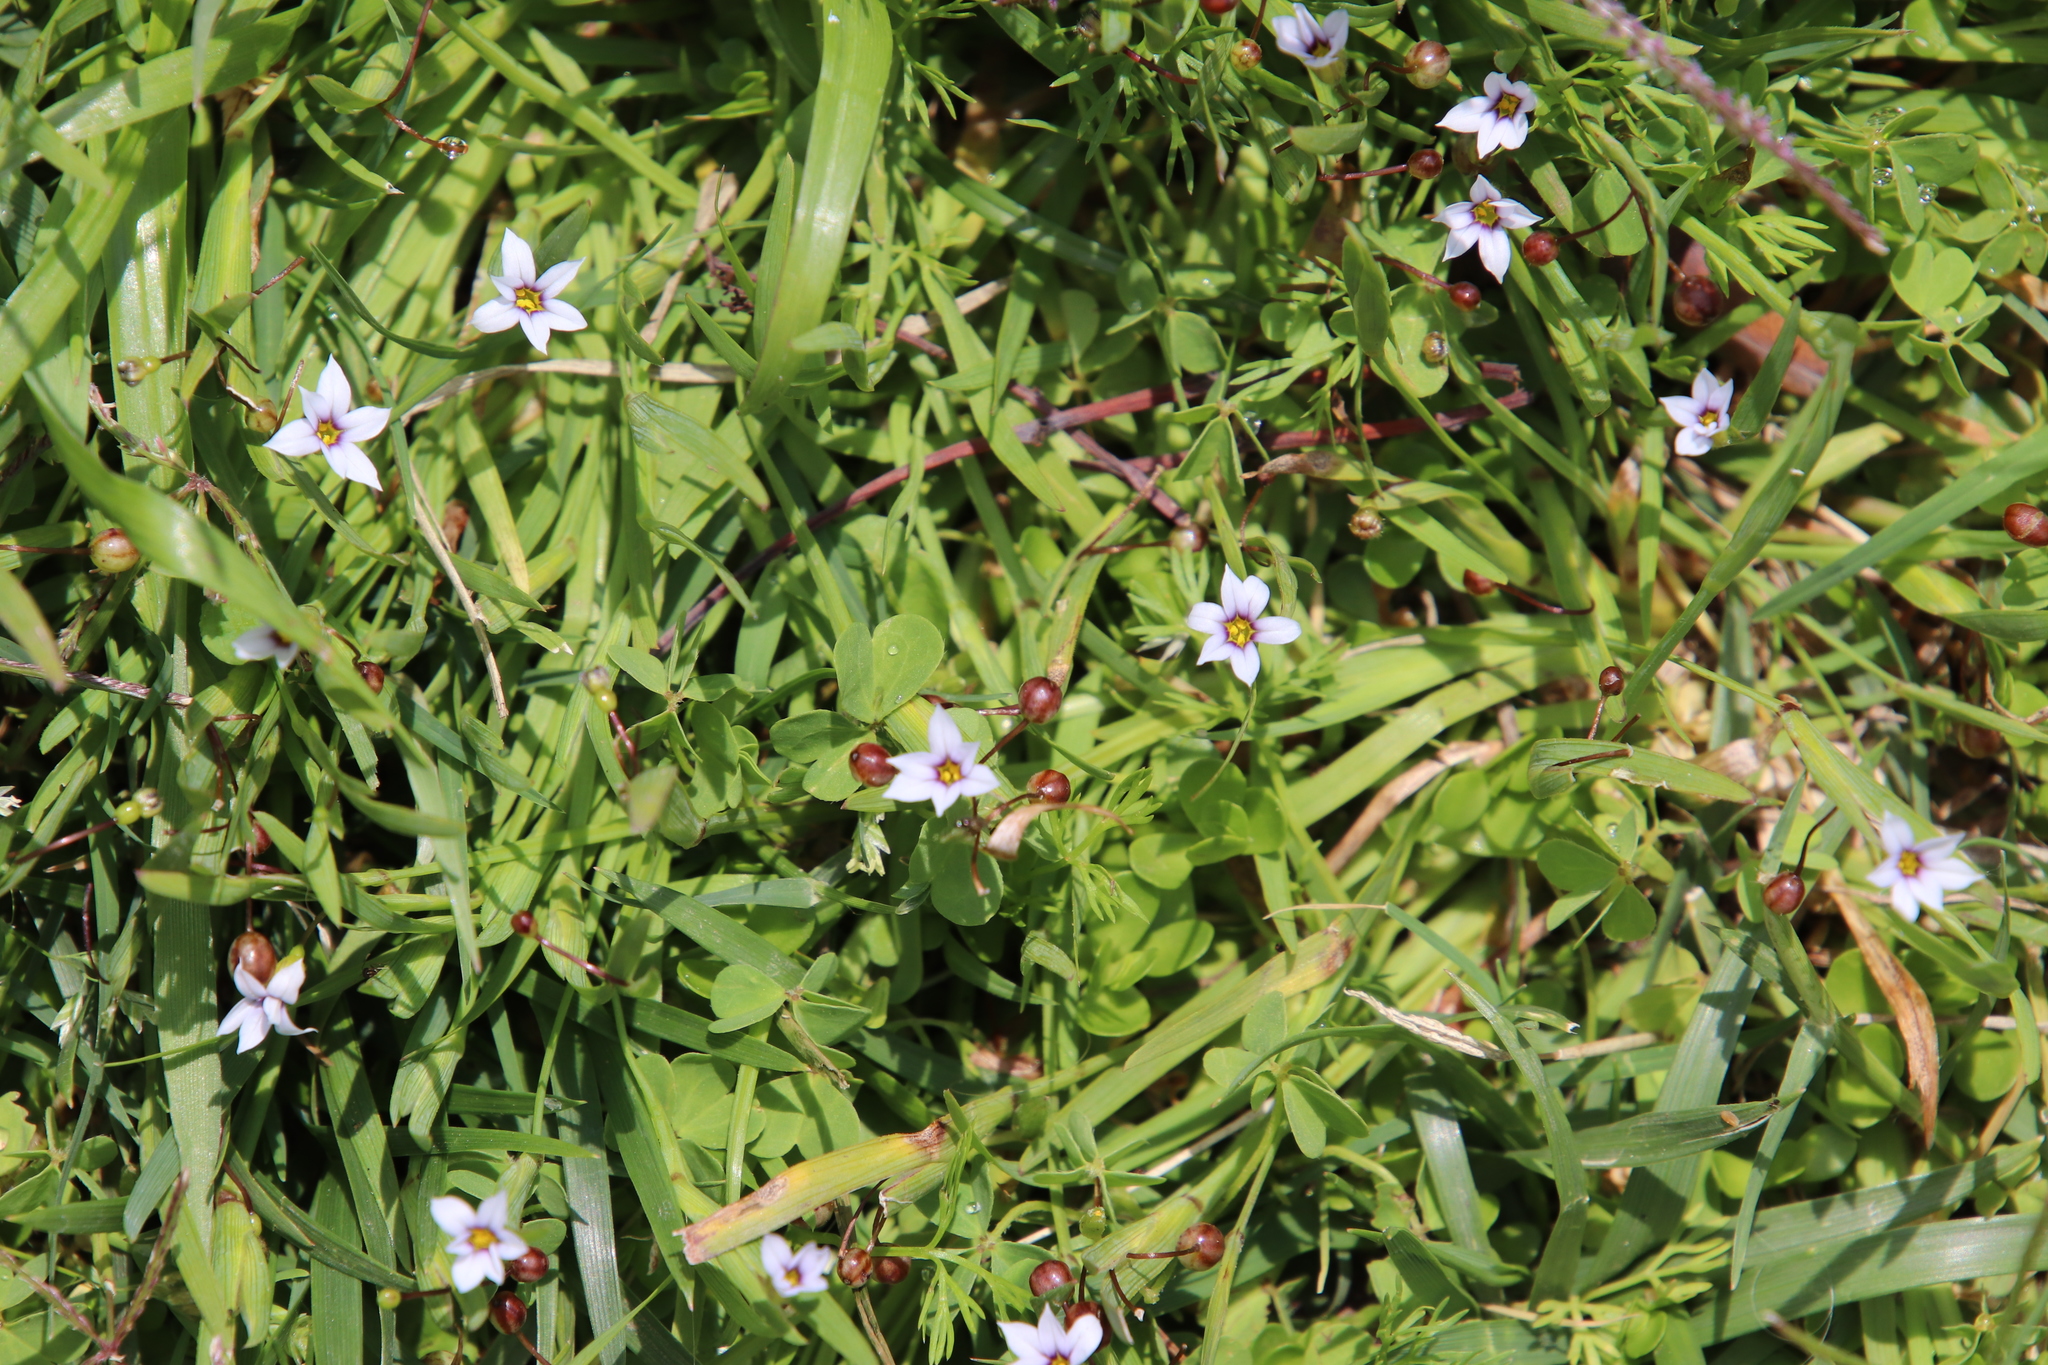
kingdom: Plantae
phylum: Tracheophyta
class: Liliopsida
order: Asparagales
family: Iridaceae
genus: Sisyrinchium
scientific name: Sisyrinchium micranthum
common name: Bermuda pigroot
